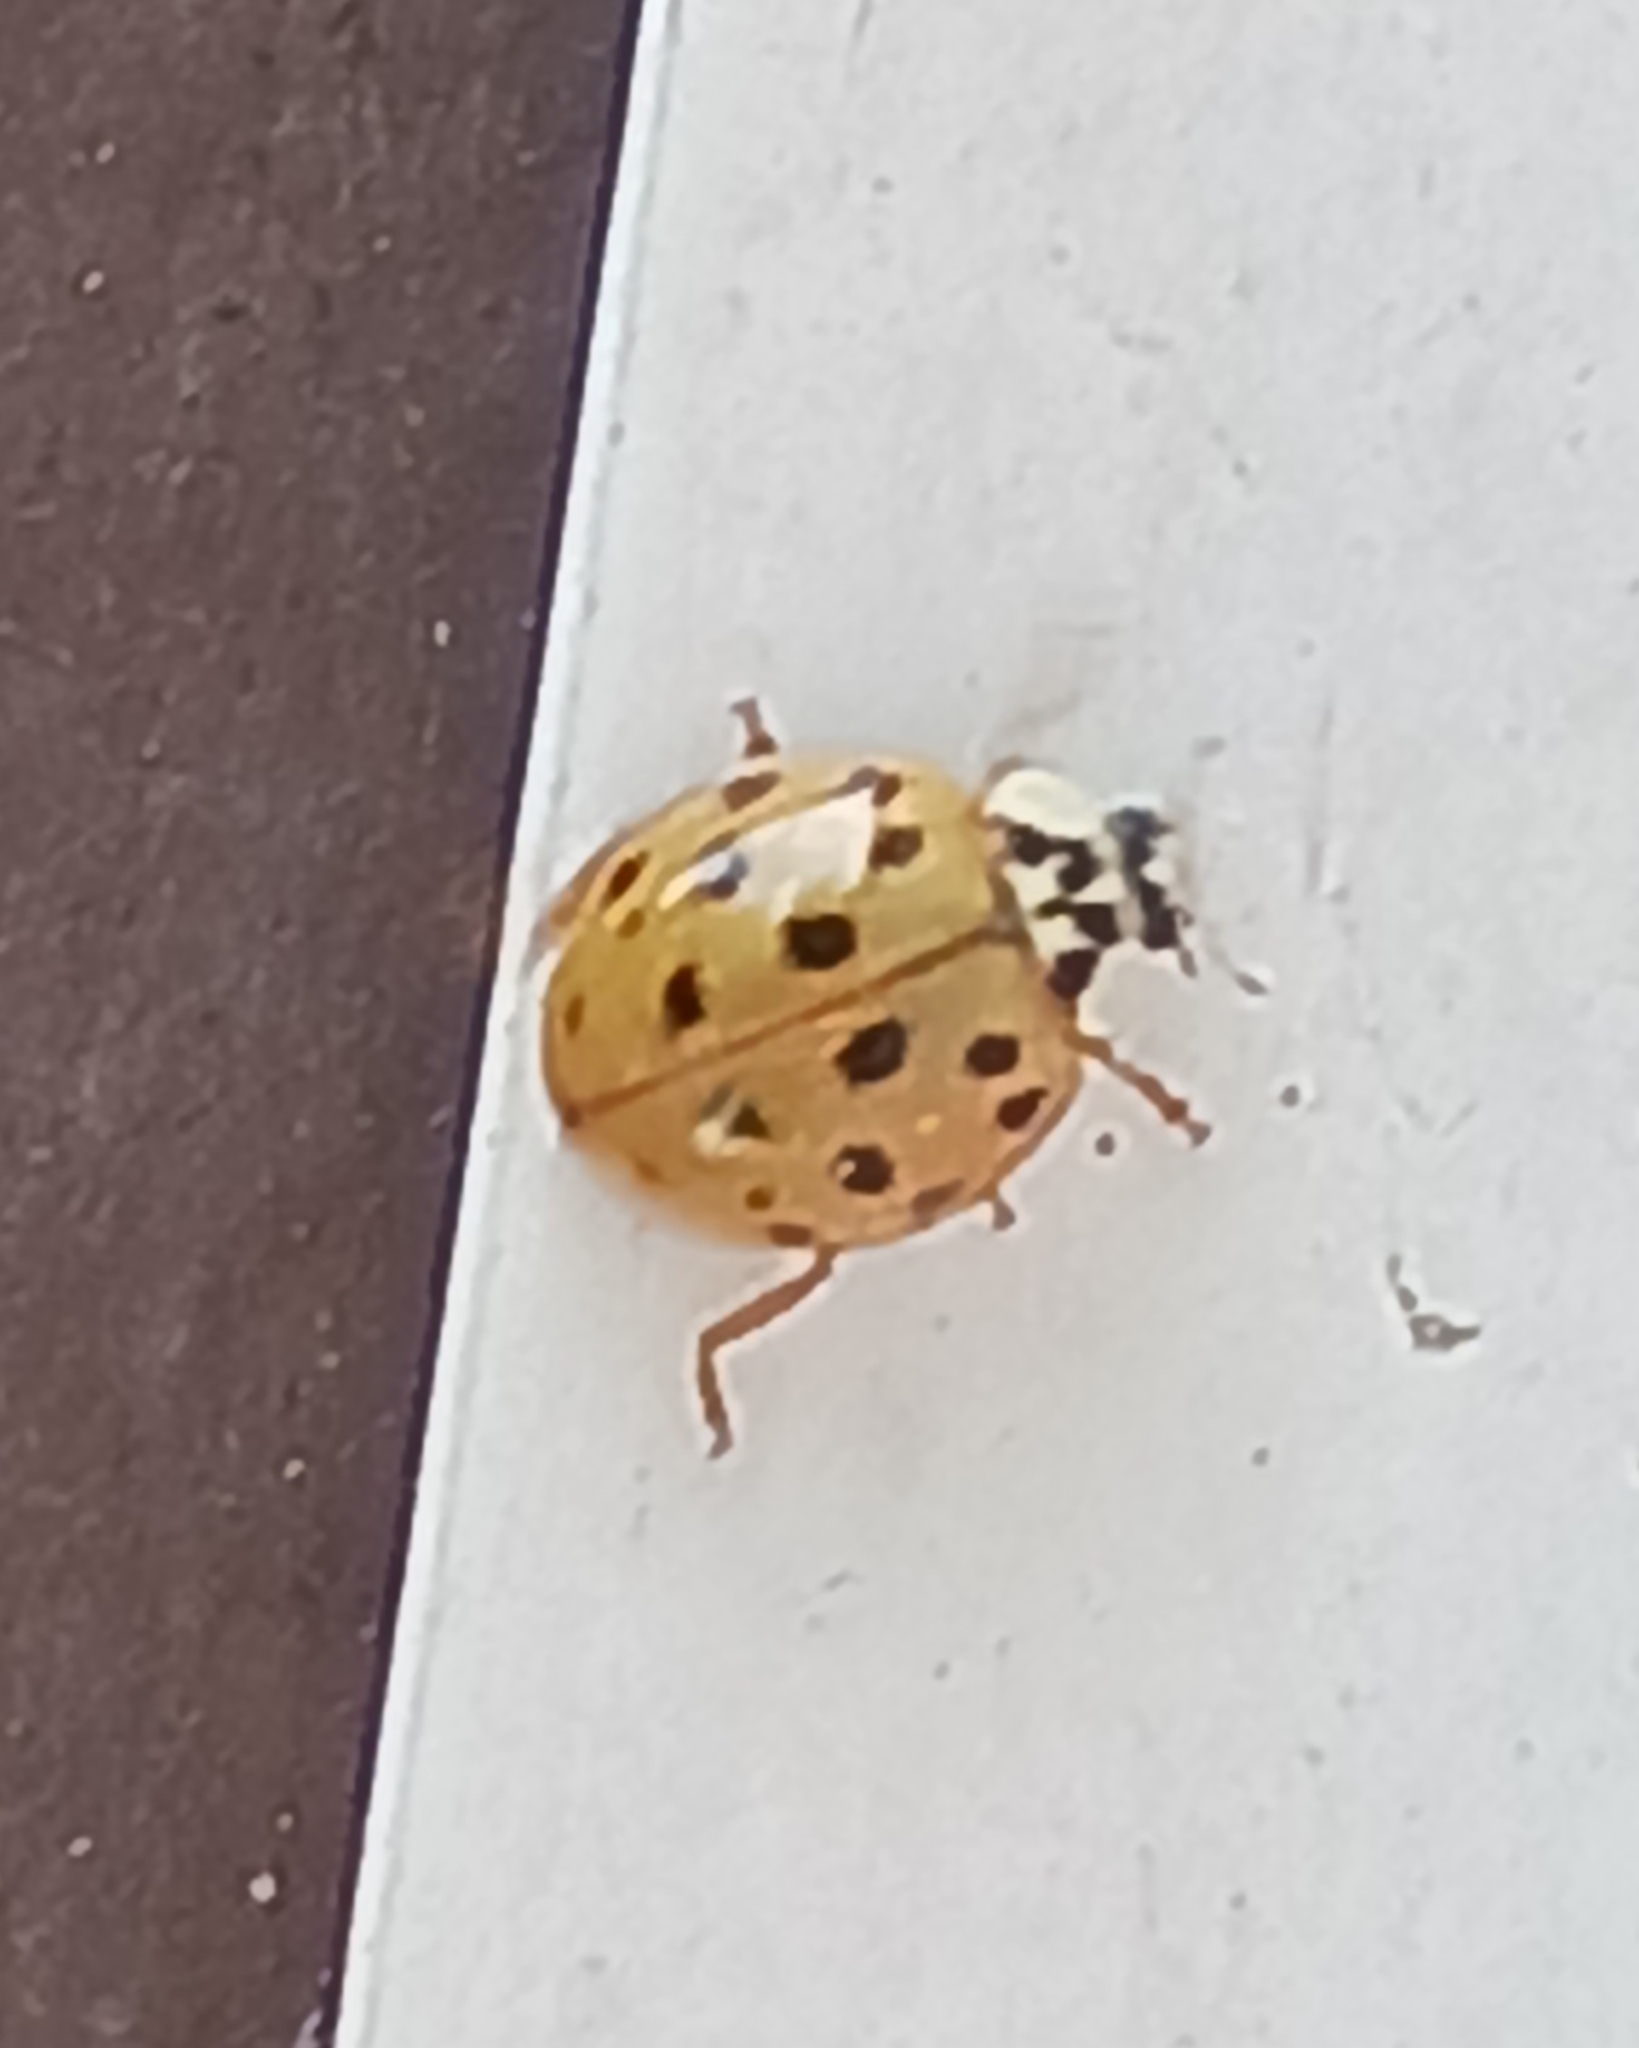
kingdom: Animalia
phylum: Arthropoda
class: Insecta
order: Coleoptera
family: Coccinellidae
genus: Harmonia
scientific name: Harmonia axyridis
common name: Harlequin ladybird
